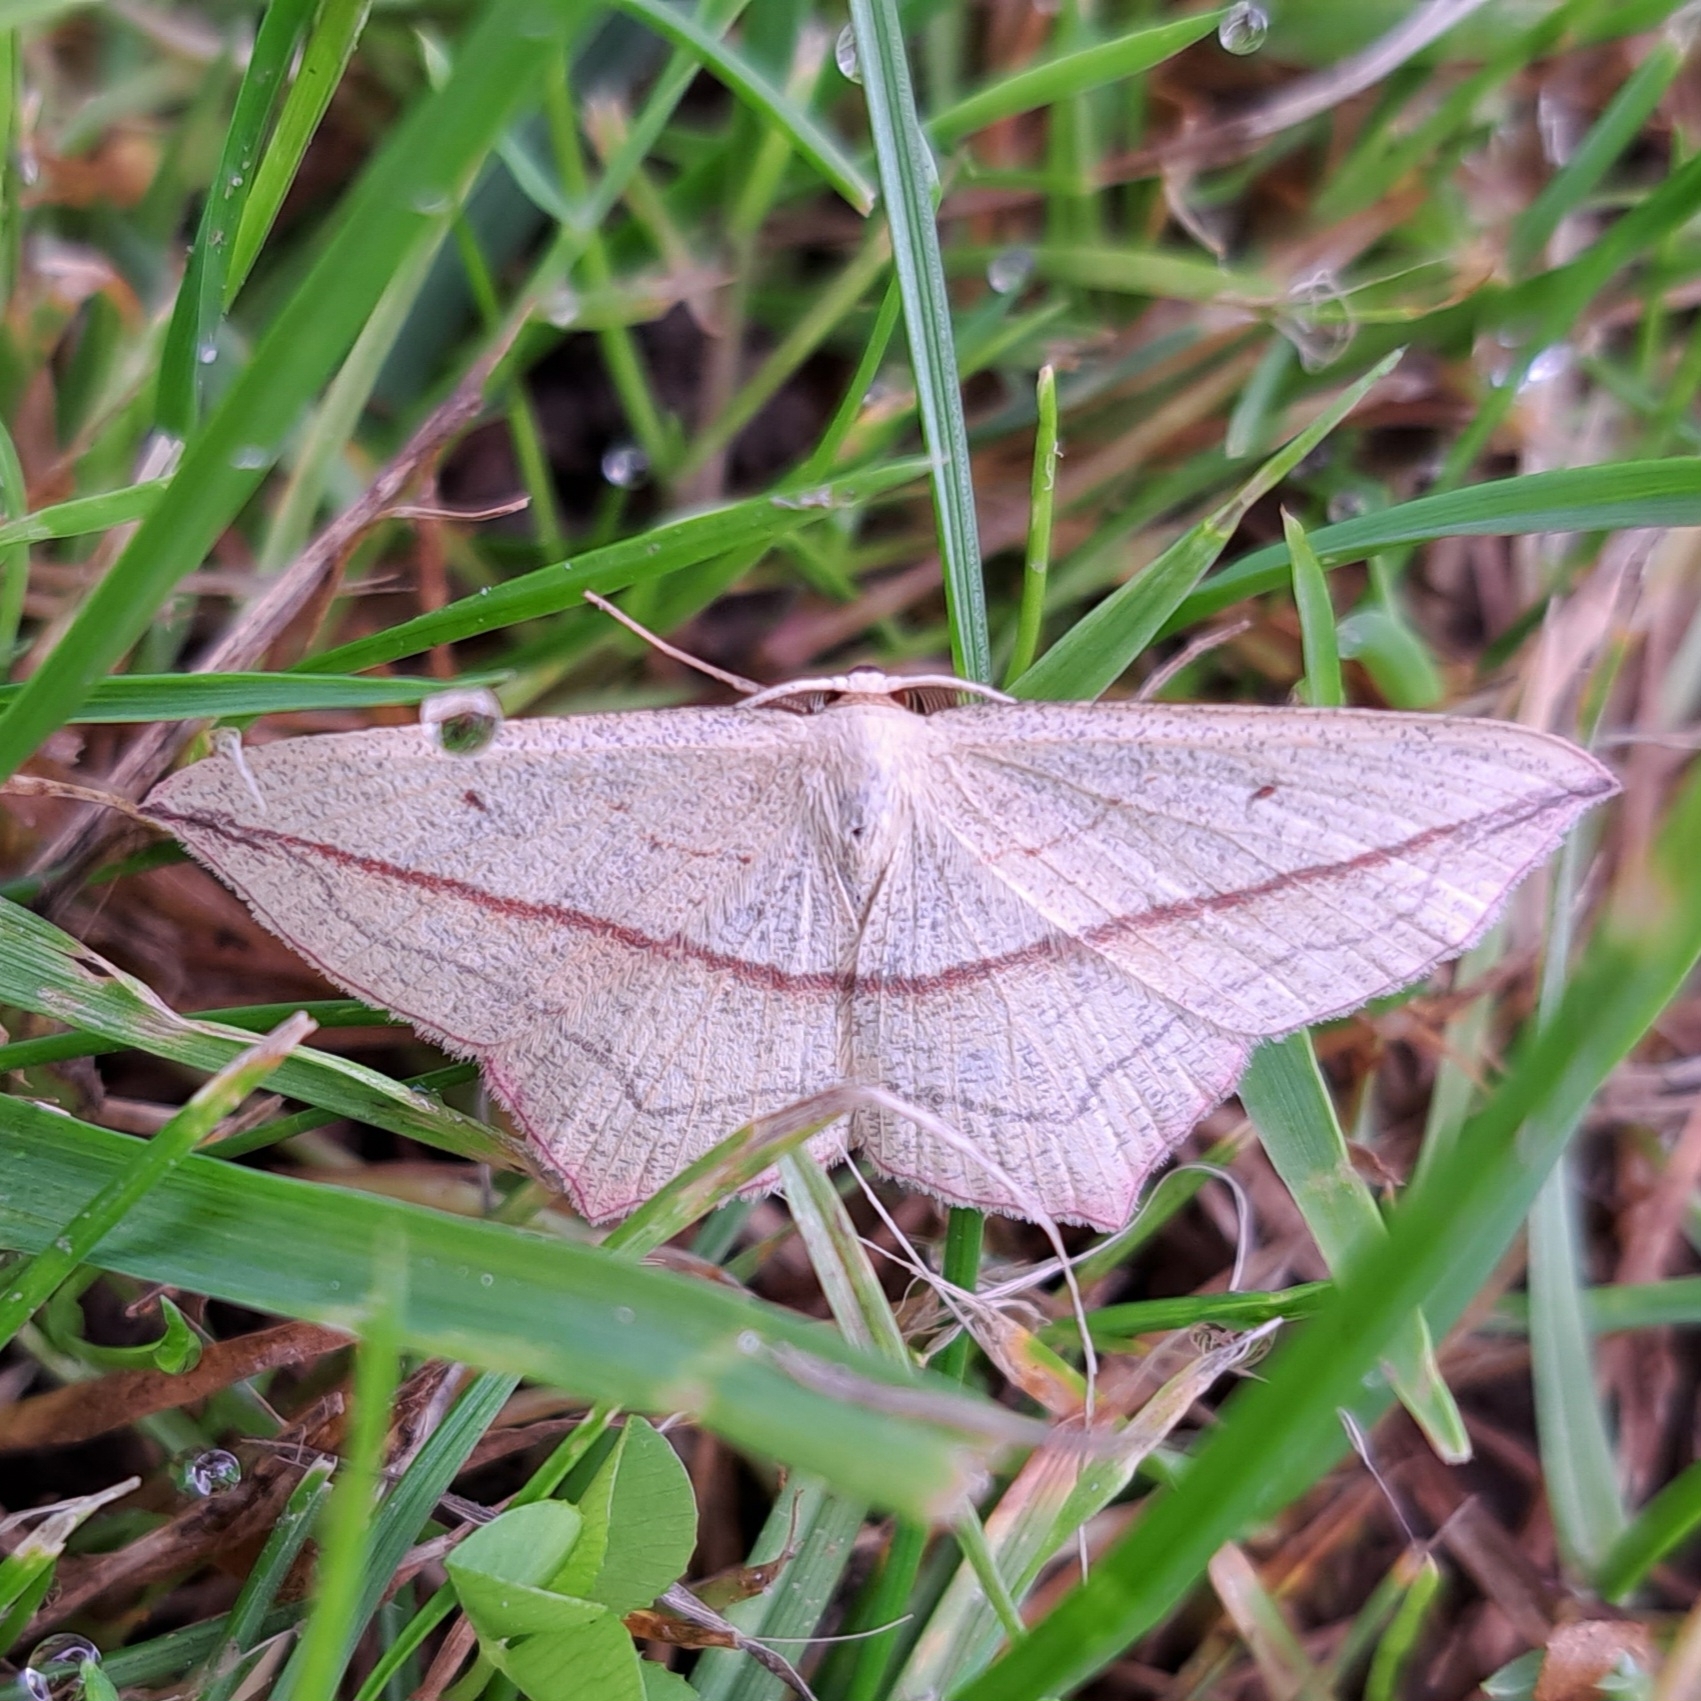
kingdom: Animalia
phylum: Arthropoda
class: Insecta
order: Lepidoptera
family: Geometridae
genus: Timandra
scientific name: Timandra comae
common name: Blood-vein
